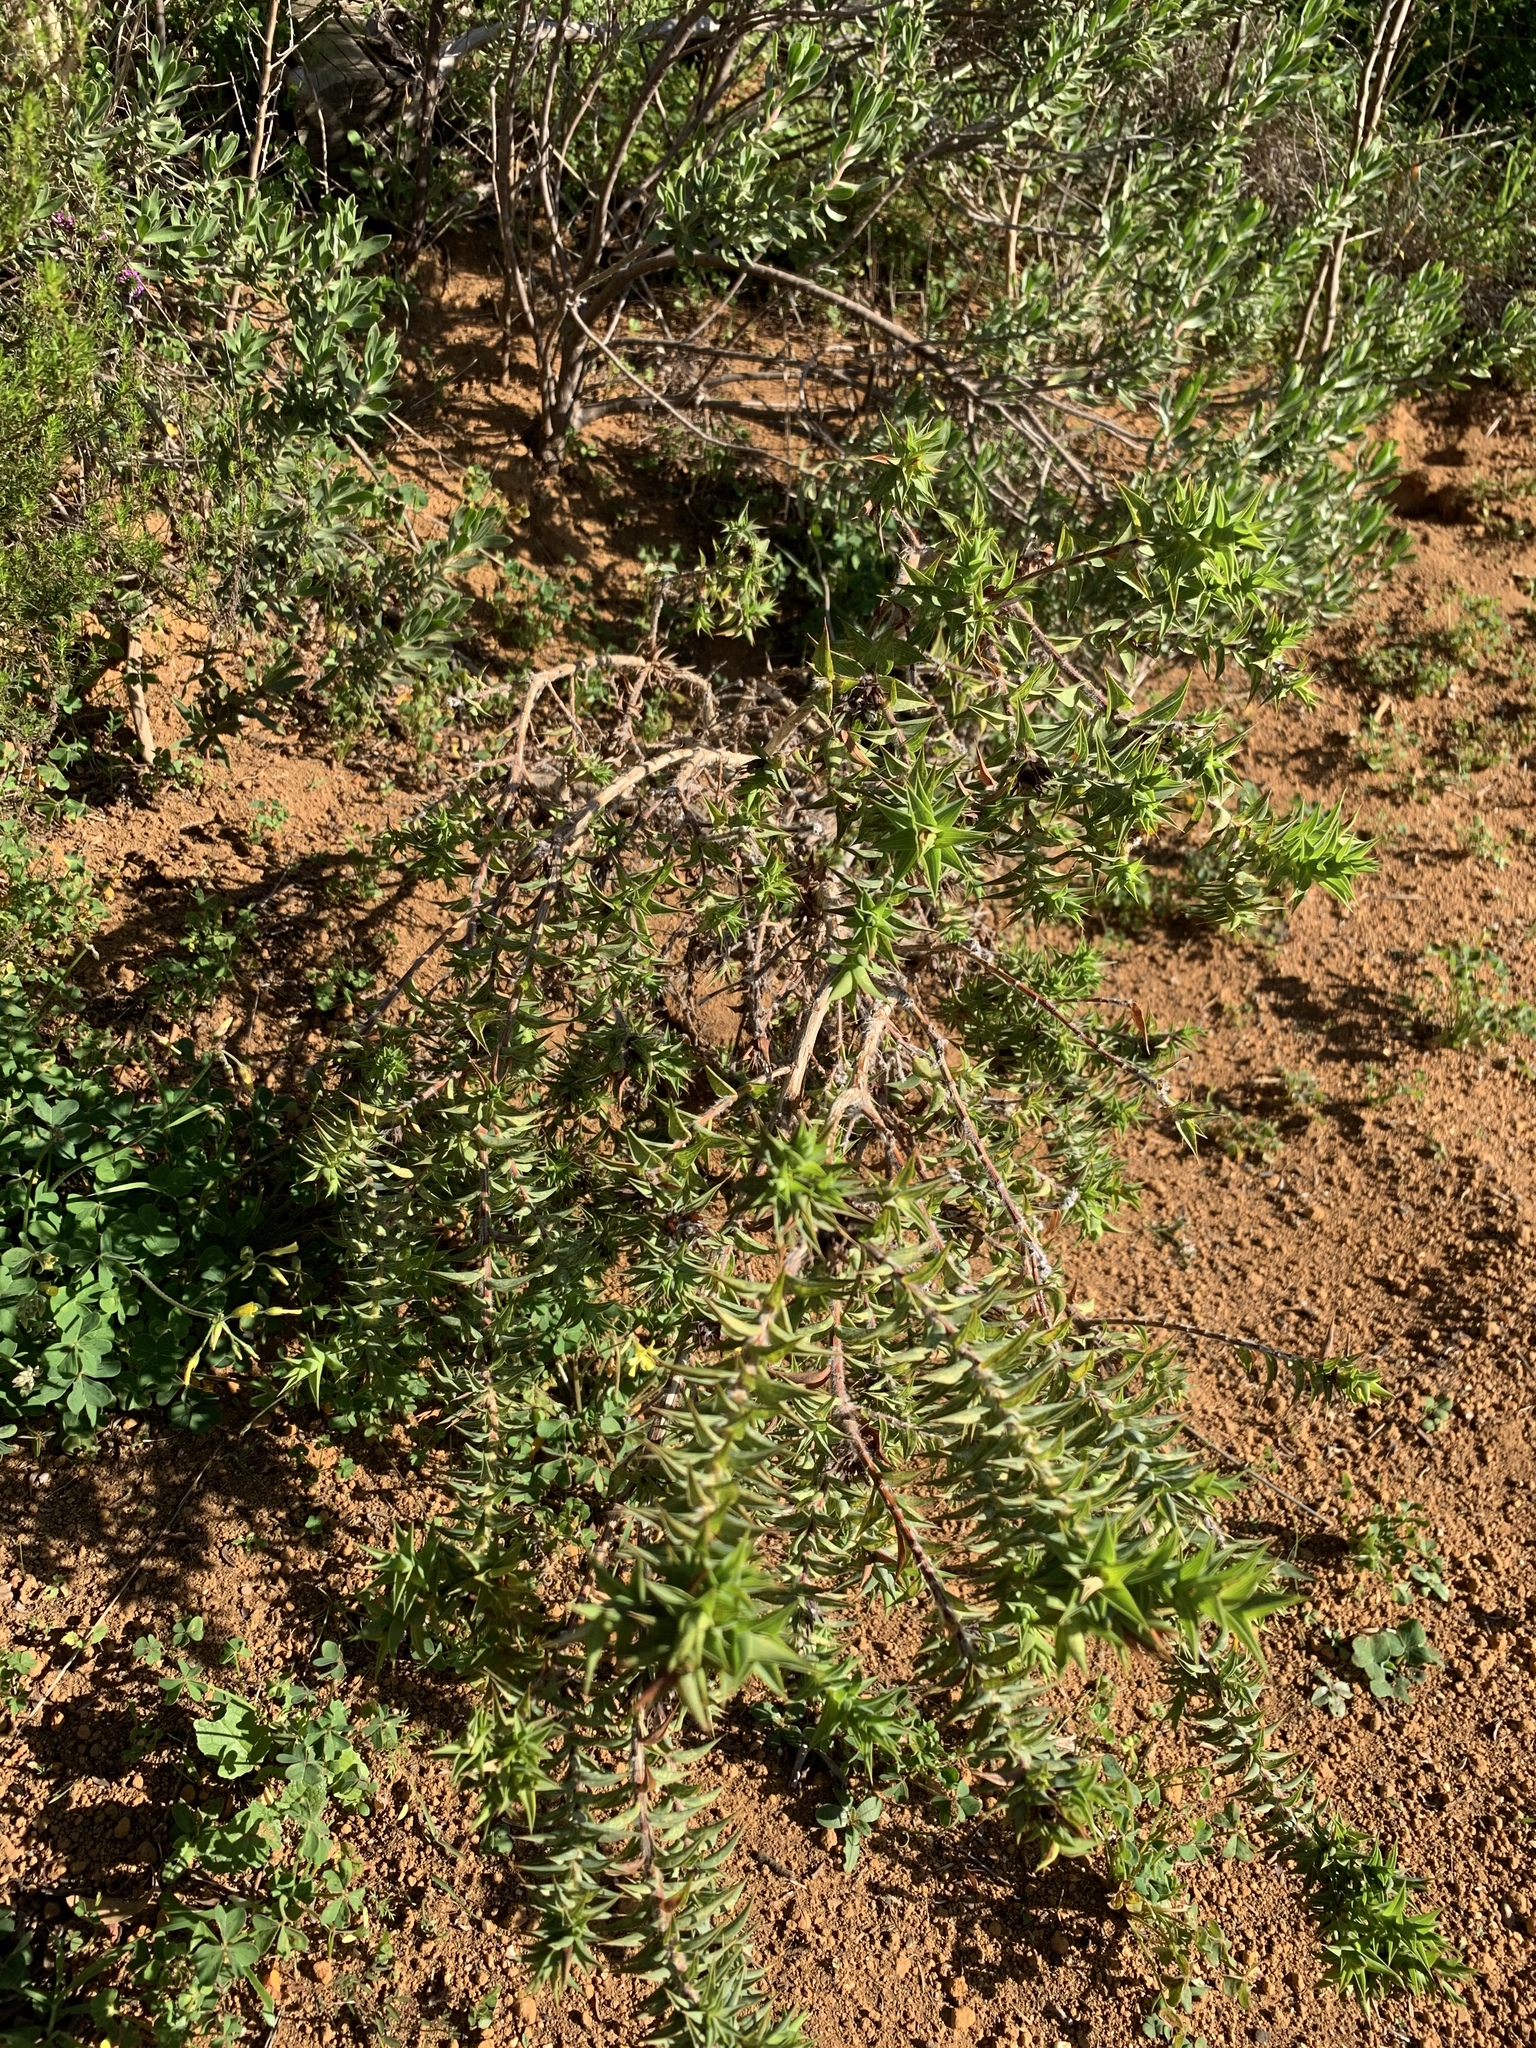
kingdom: Plantae
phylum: Tracheophyta
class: Magnoliopsida
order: Fabales
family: Fabaceae
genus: Aspalathus
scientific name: Aspalathus cordata
